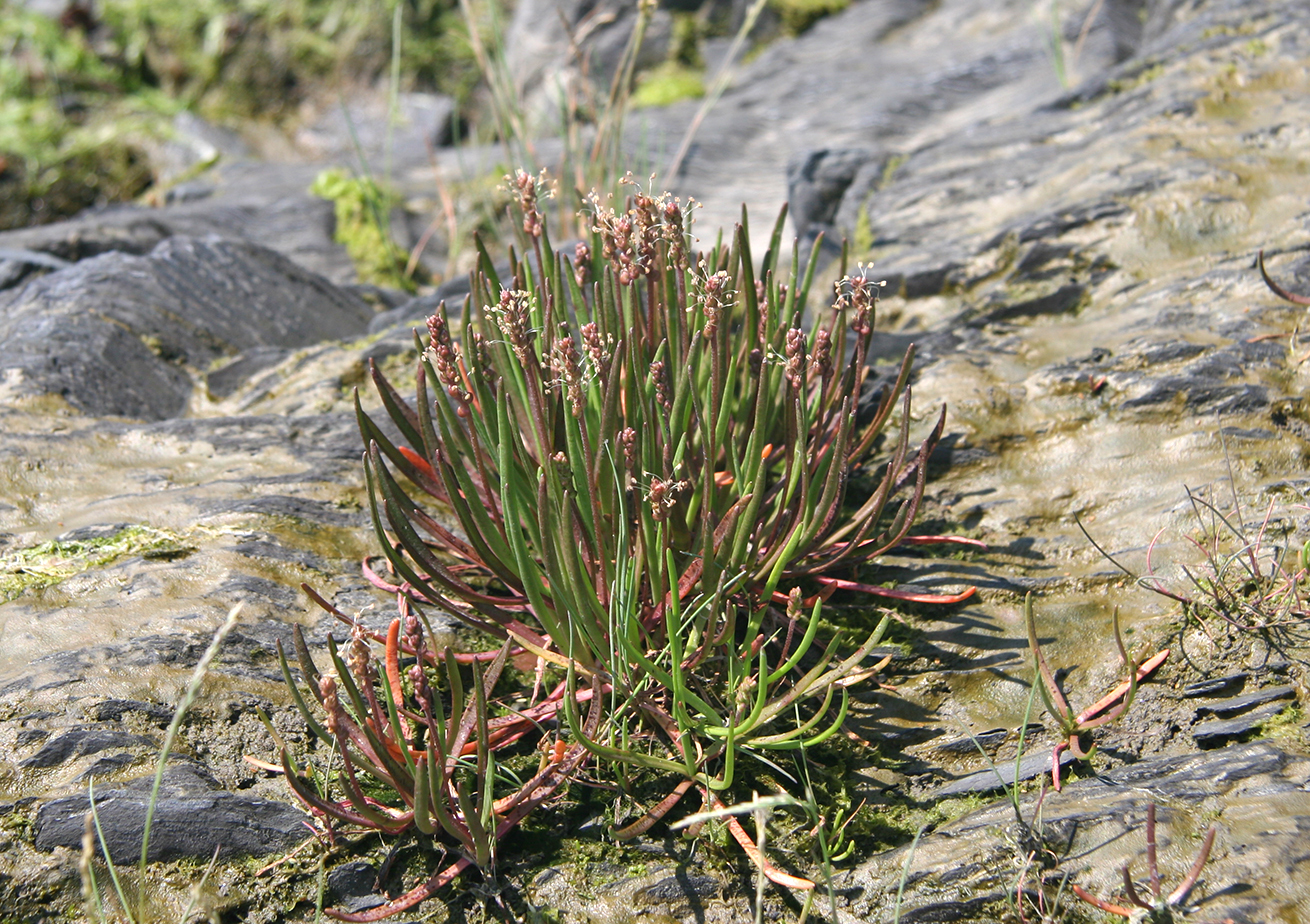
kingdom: Plantae
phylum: Tracheophyta
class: Magnoliopsida
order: Lamiales
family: Plantaginaceae
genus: Plantago
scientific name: Plantago maritima
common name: Sea plantain
